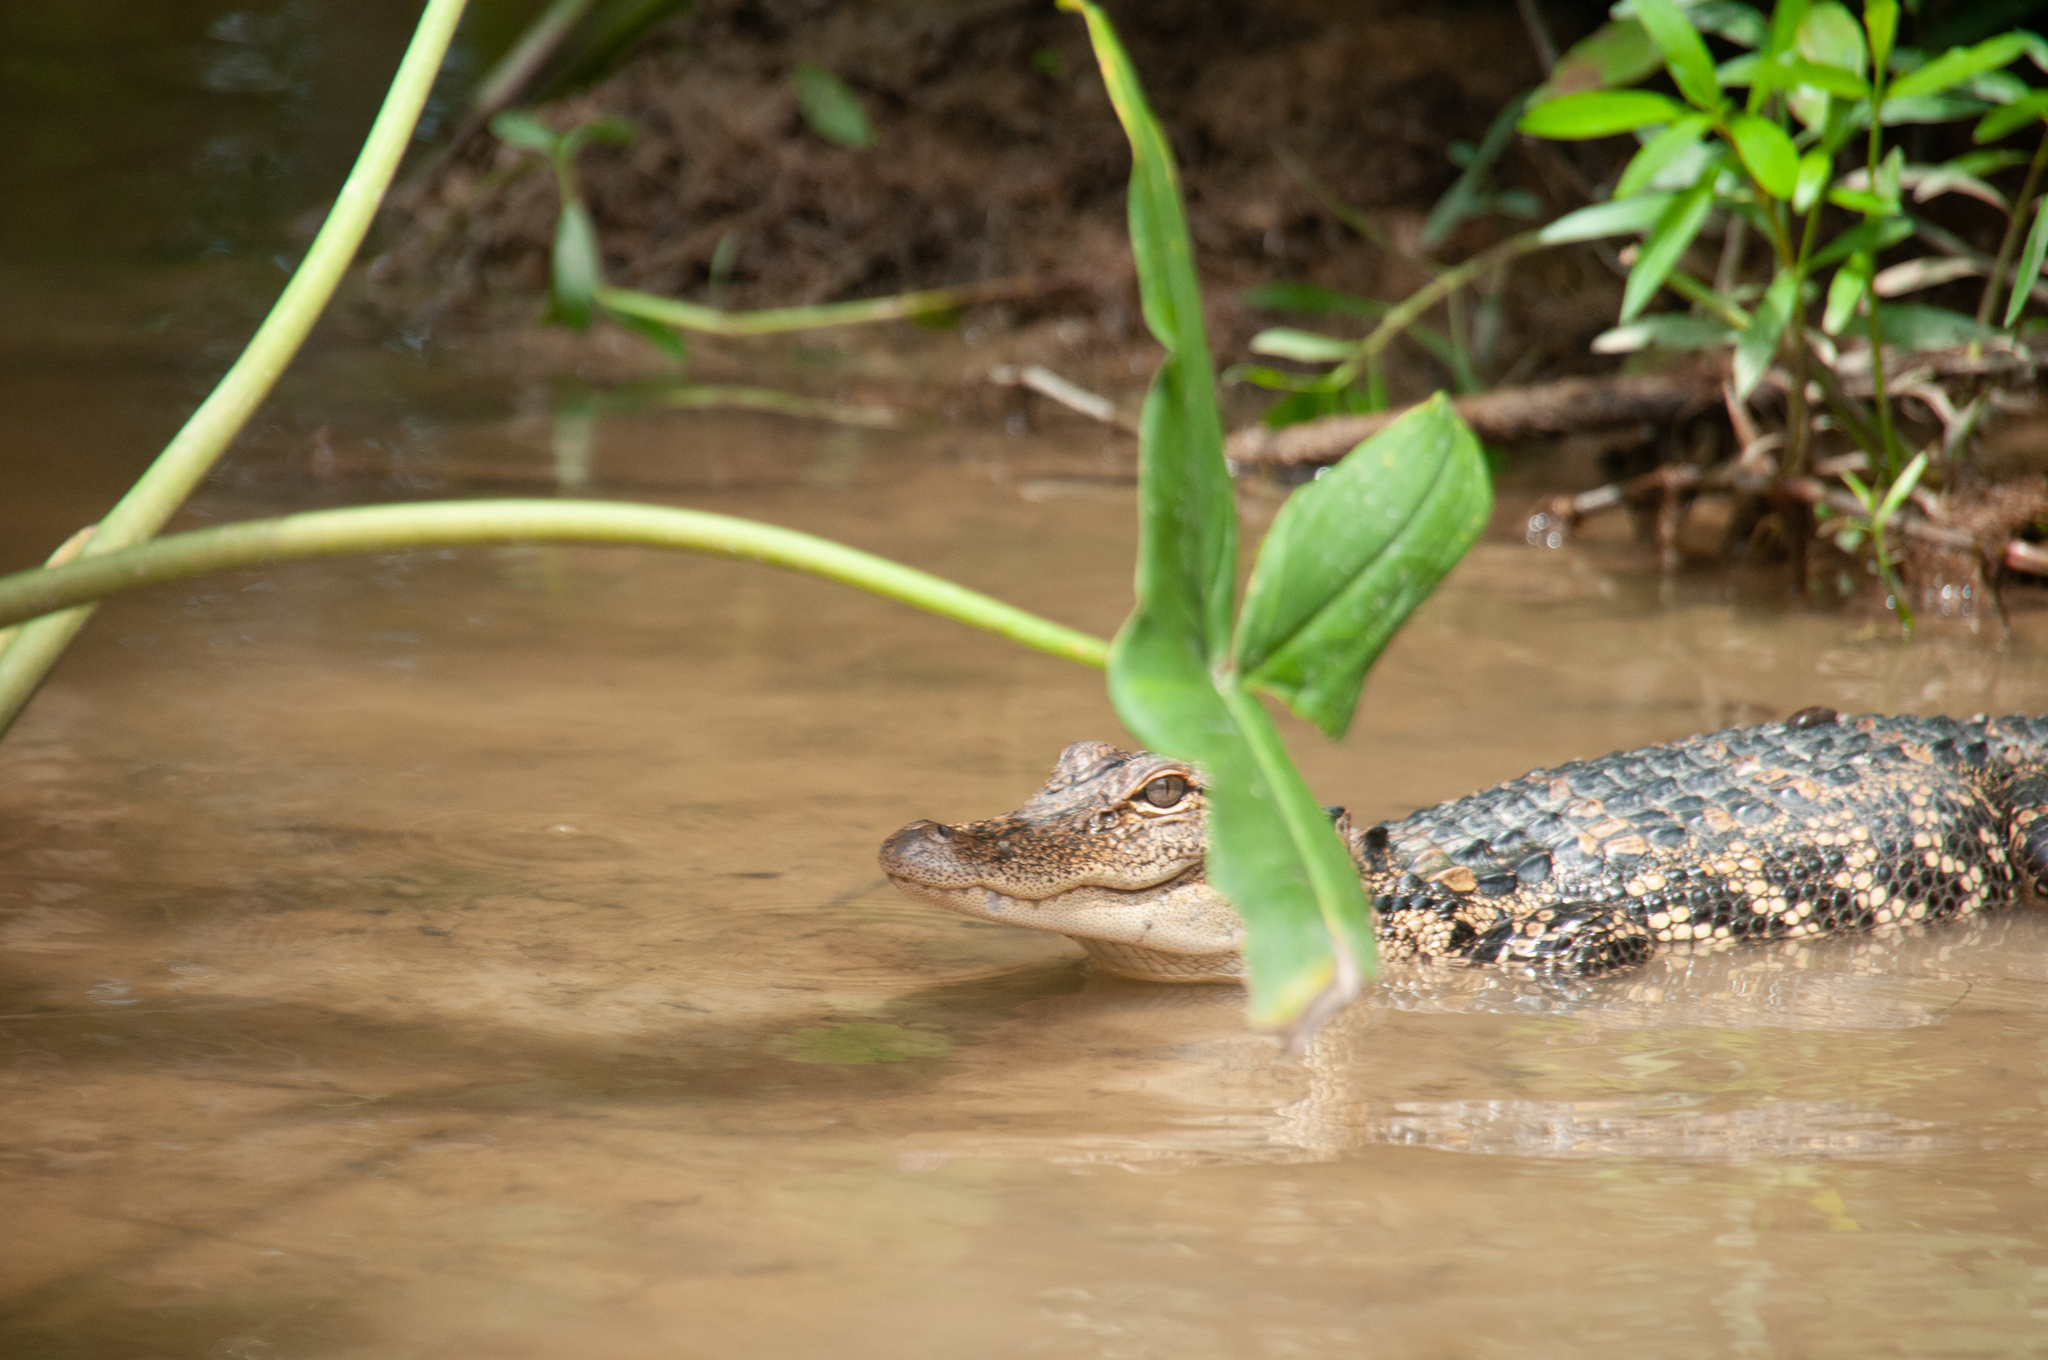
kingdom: Animalia
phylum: Chordata
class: Crocodylia
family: Alligatoridae
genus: Alligator
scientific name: Alligator mississippiensis
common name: American alligator
